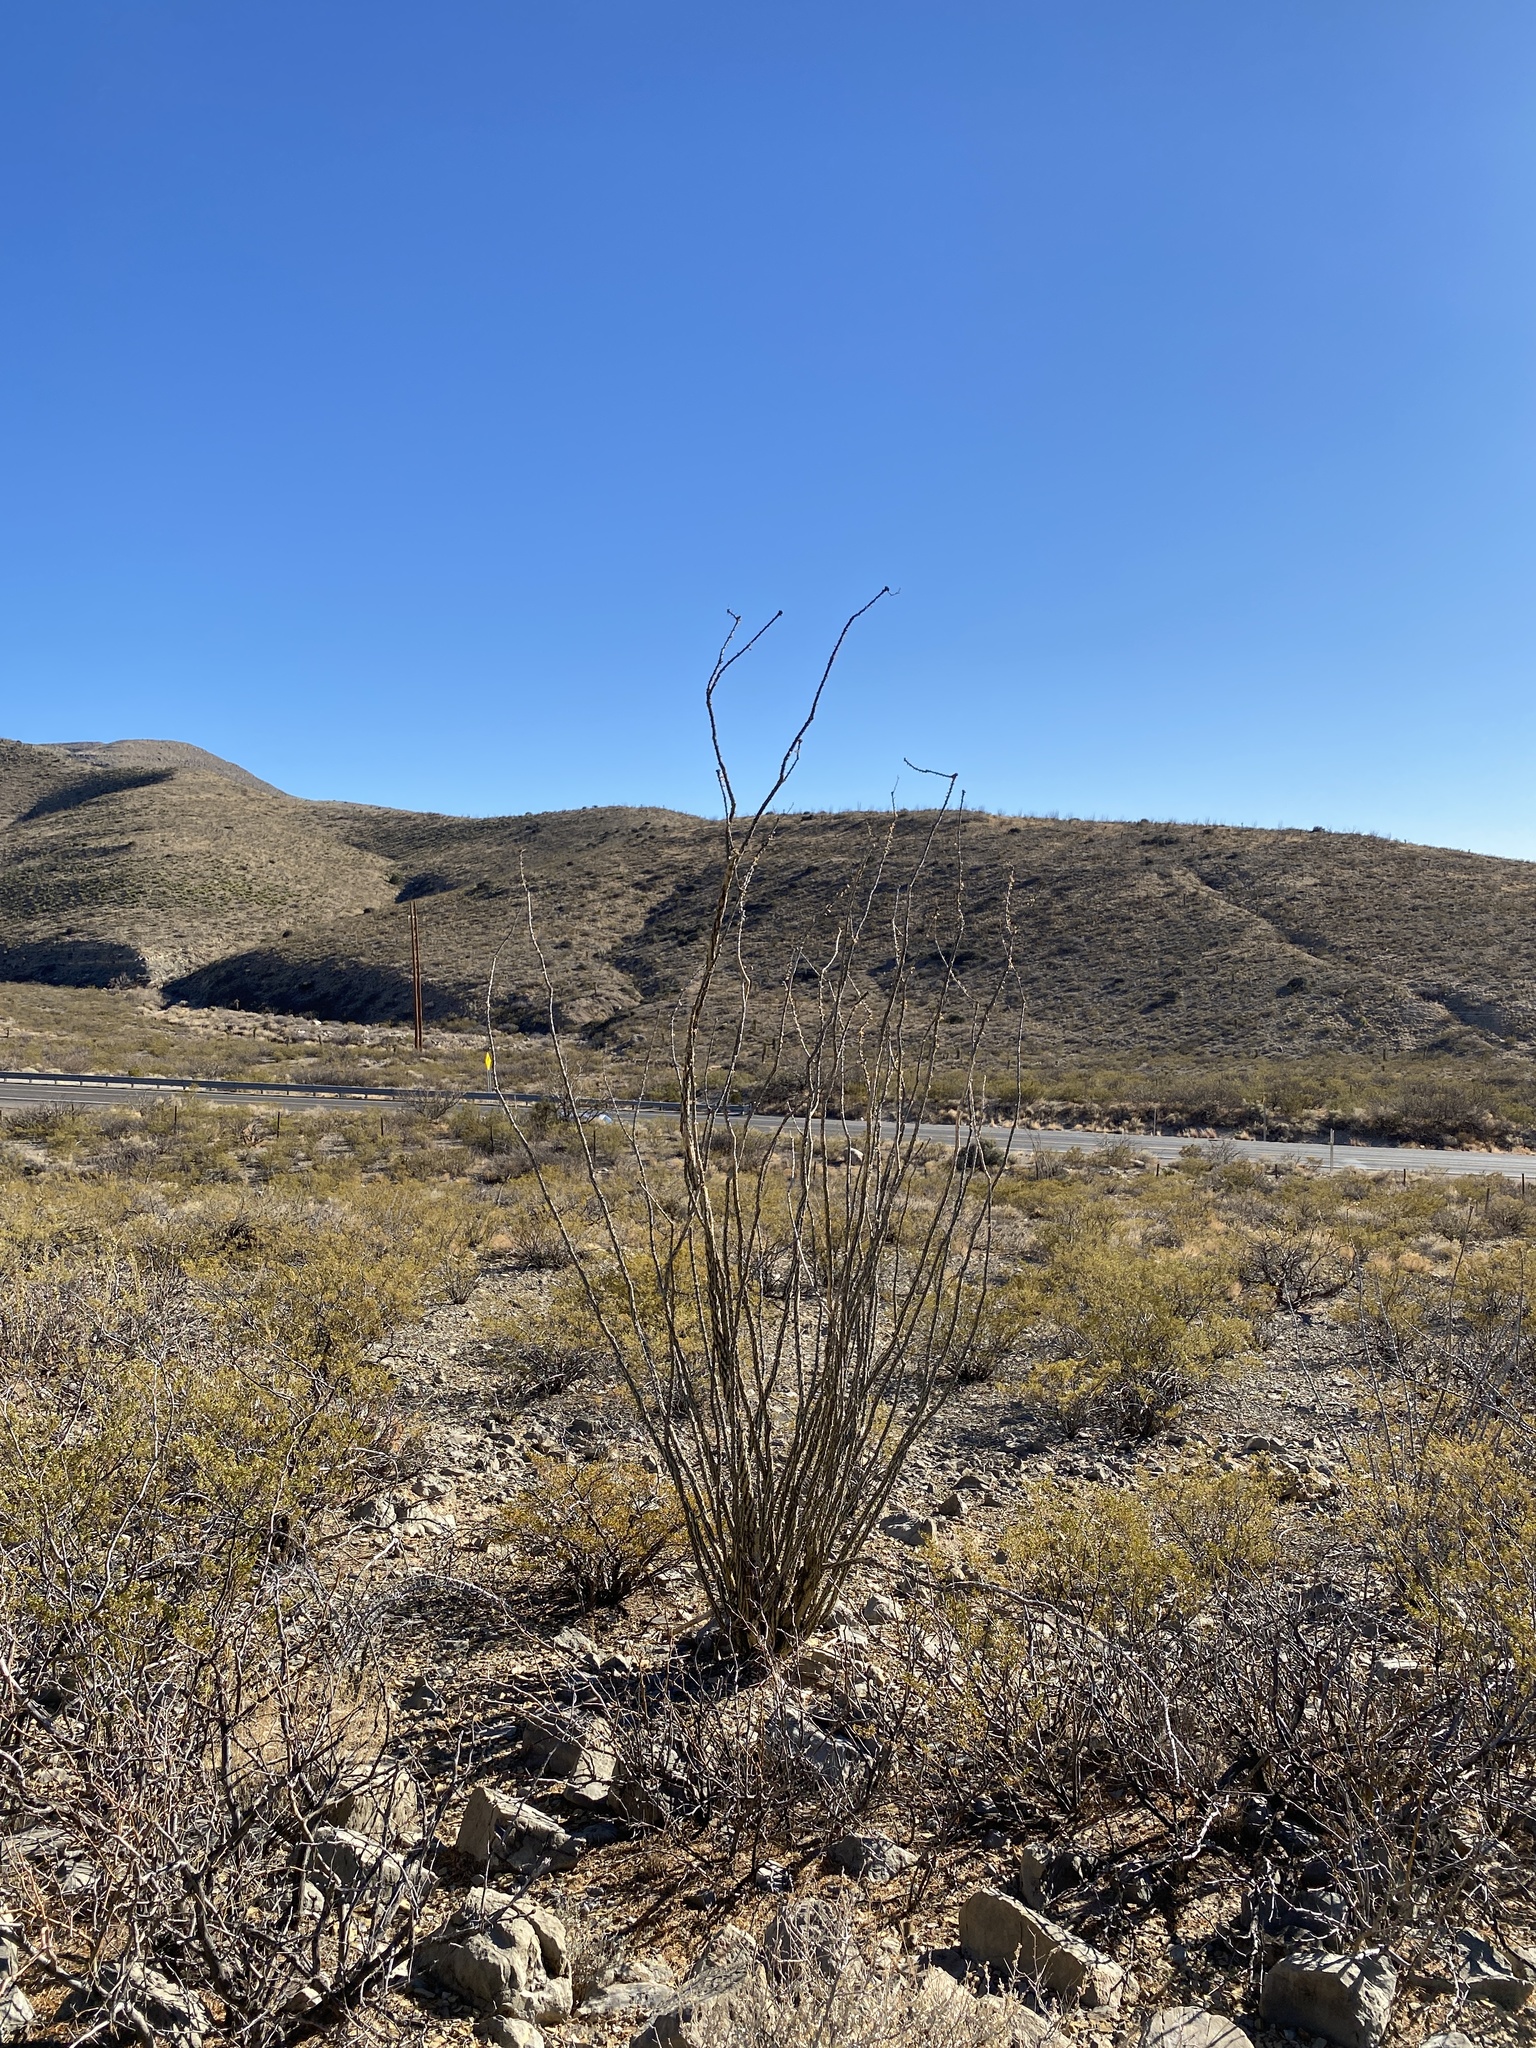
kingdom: Plantae
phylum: Tracheophyta
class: Magnoliopsida
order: Ericales
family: Fouquieriaceae
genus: Fouquieria
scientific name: Fouquieria splendens
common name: Vine-cactus
